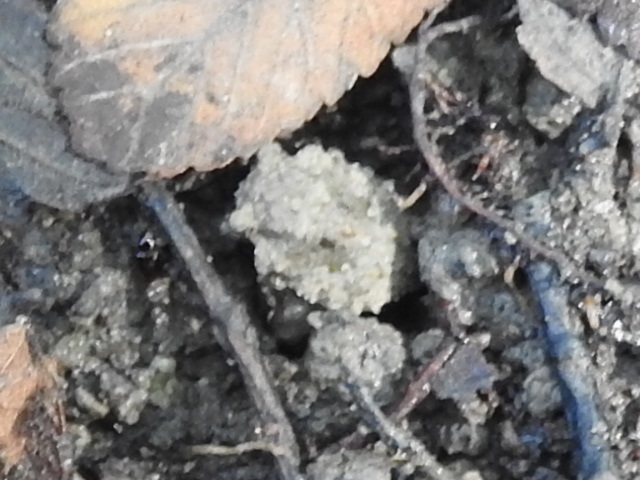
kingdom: Animalia
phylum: Arthropoda
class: Insecta
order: Hemiptera
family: Gelastocoridae
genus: Gelastocoris
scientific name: Gelastocoris oculatus
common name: Toad bug
